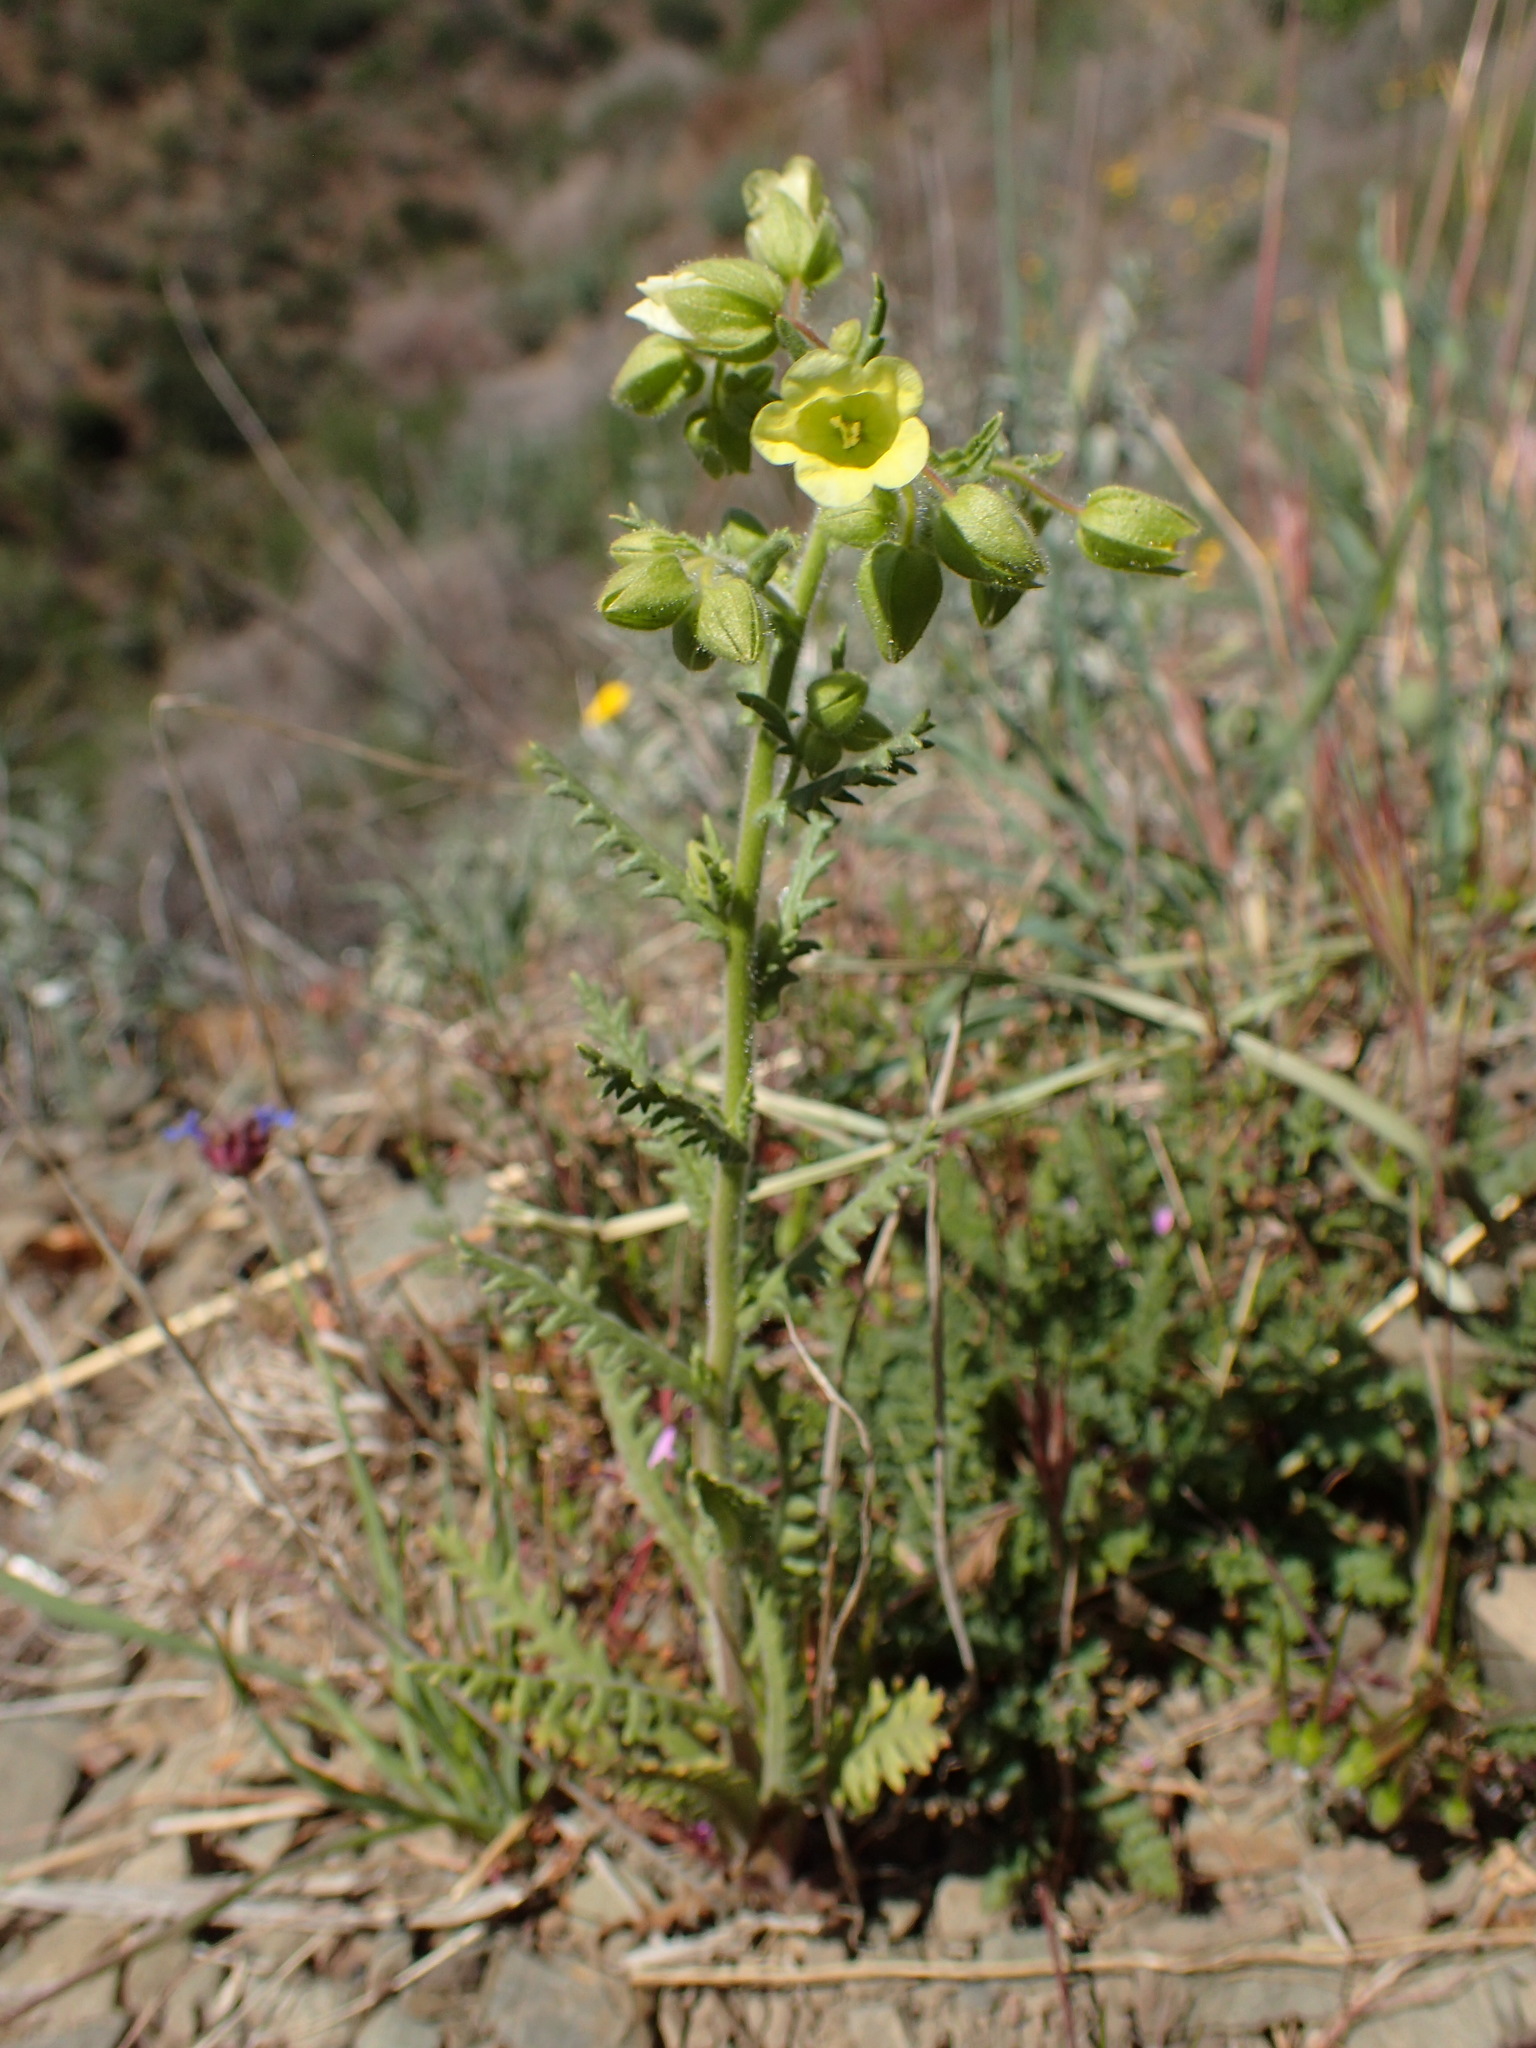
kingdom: Plantae
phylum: Tracheophyta
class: Magnoliopsida
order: Boraginales
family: Hydrophyllaceae
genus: Emmenanthe
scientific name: Emmenanthe penduliflora
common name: Whispering-bells
